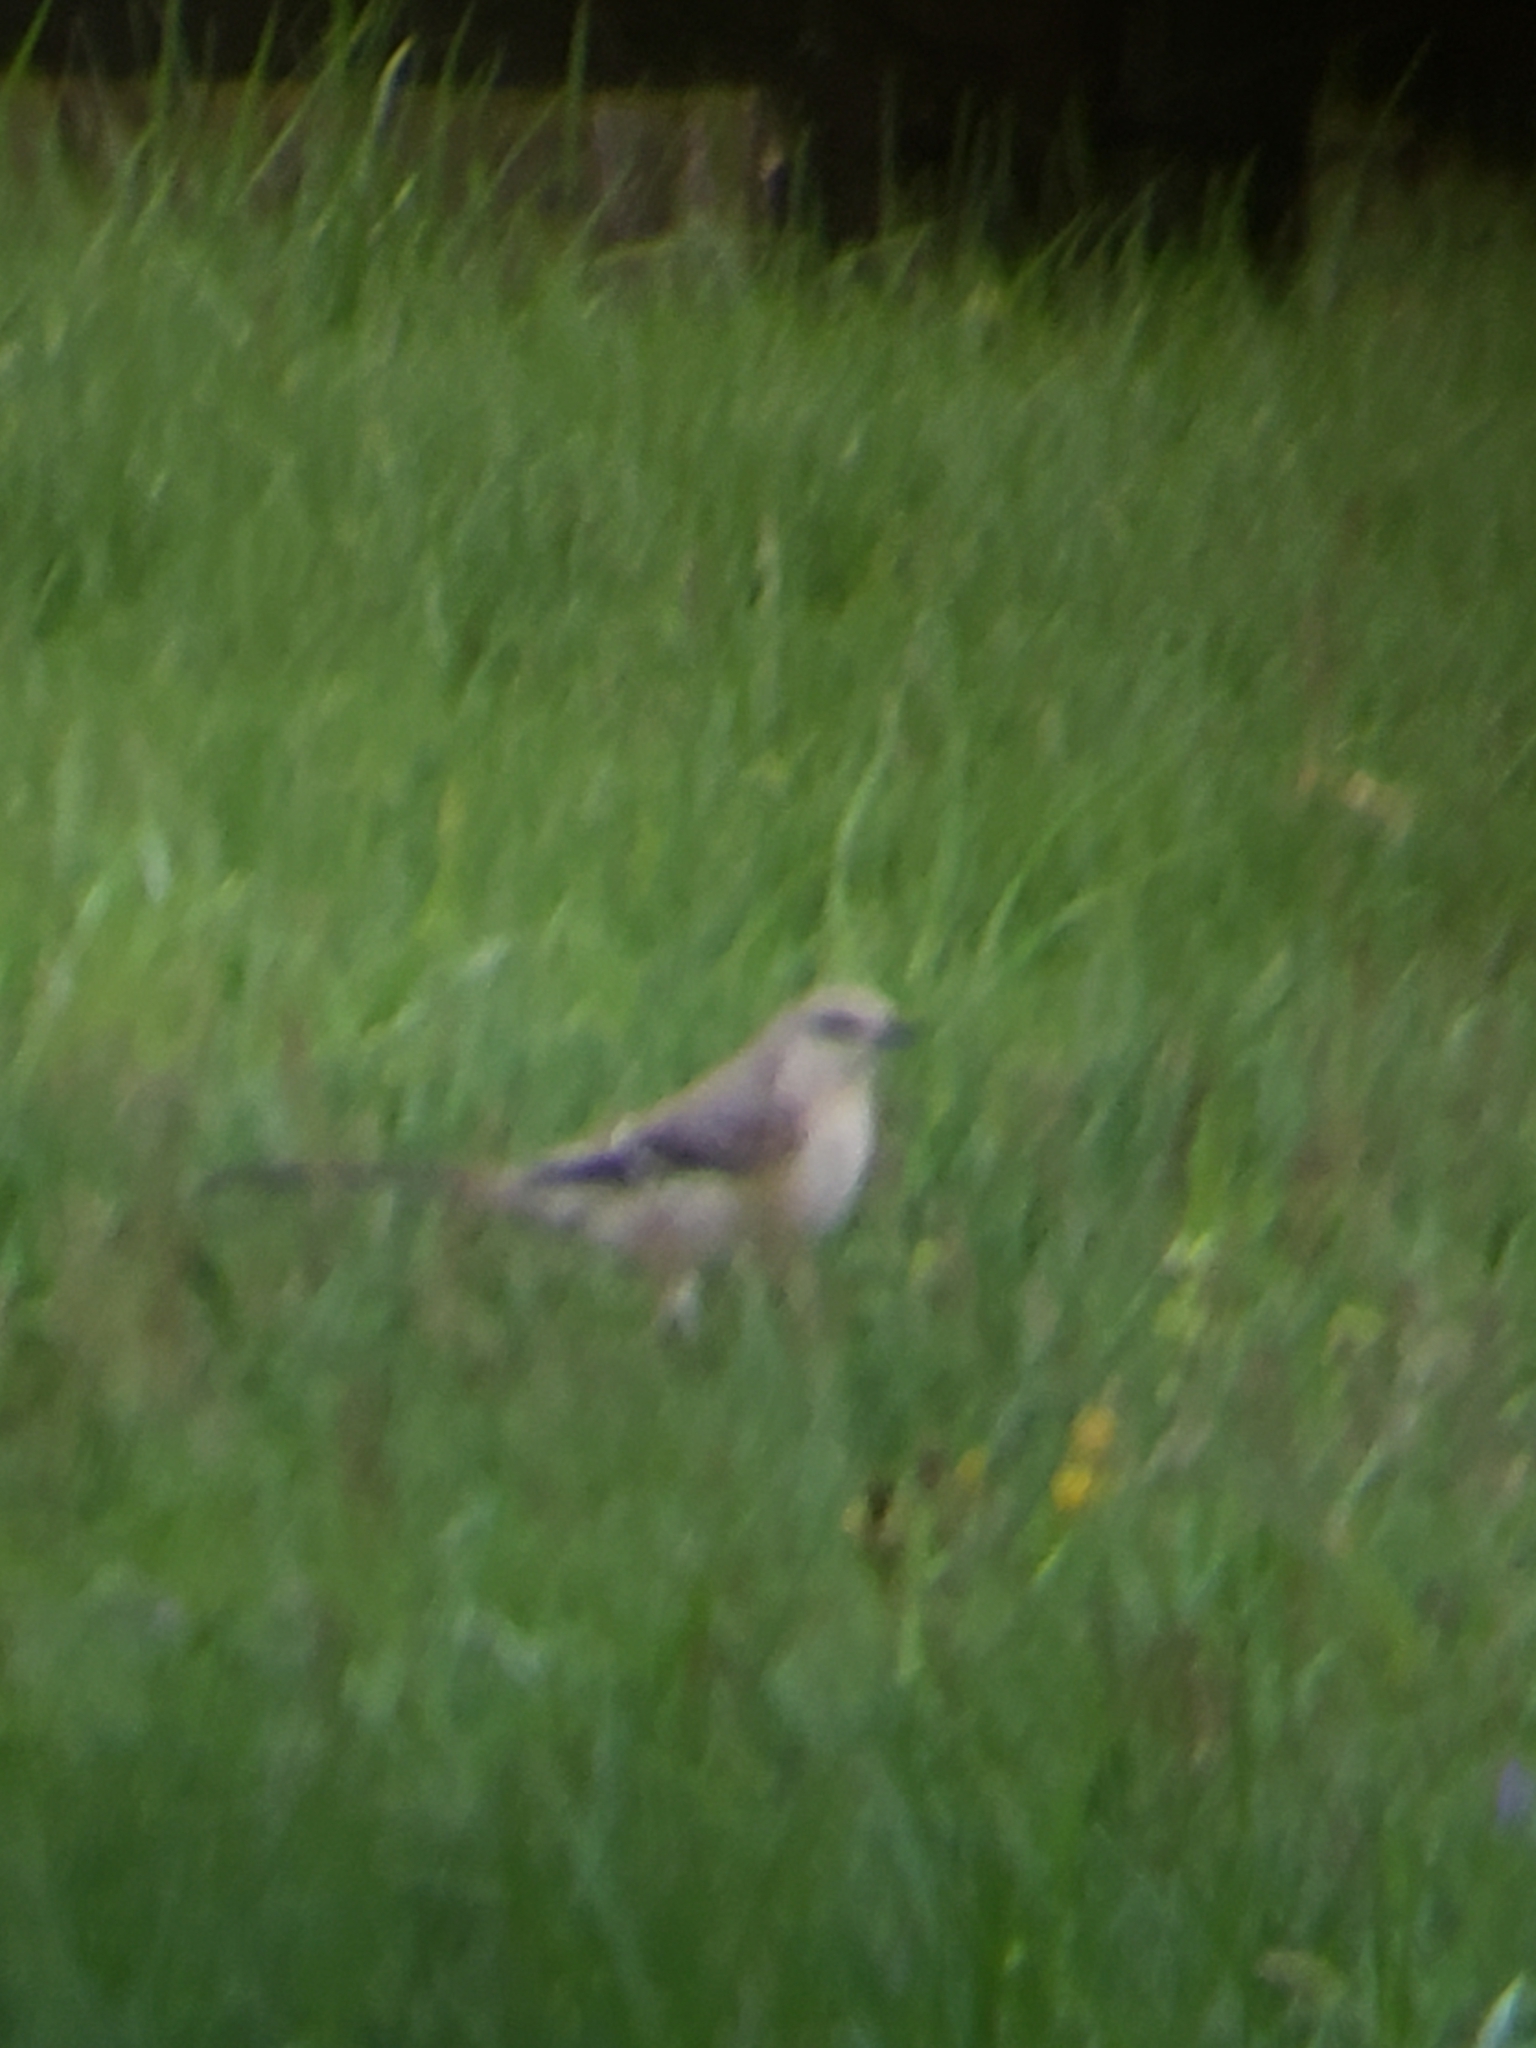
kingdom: Animalia
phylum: Chordata
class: Aves
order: Passeriformes
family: Mimidae
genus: Mimus
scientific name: Mimus polyglottos
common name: Northern mockingbird
